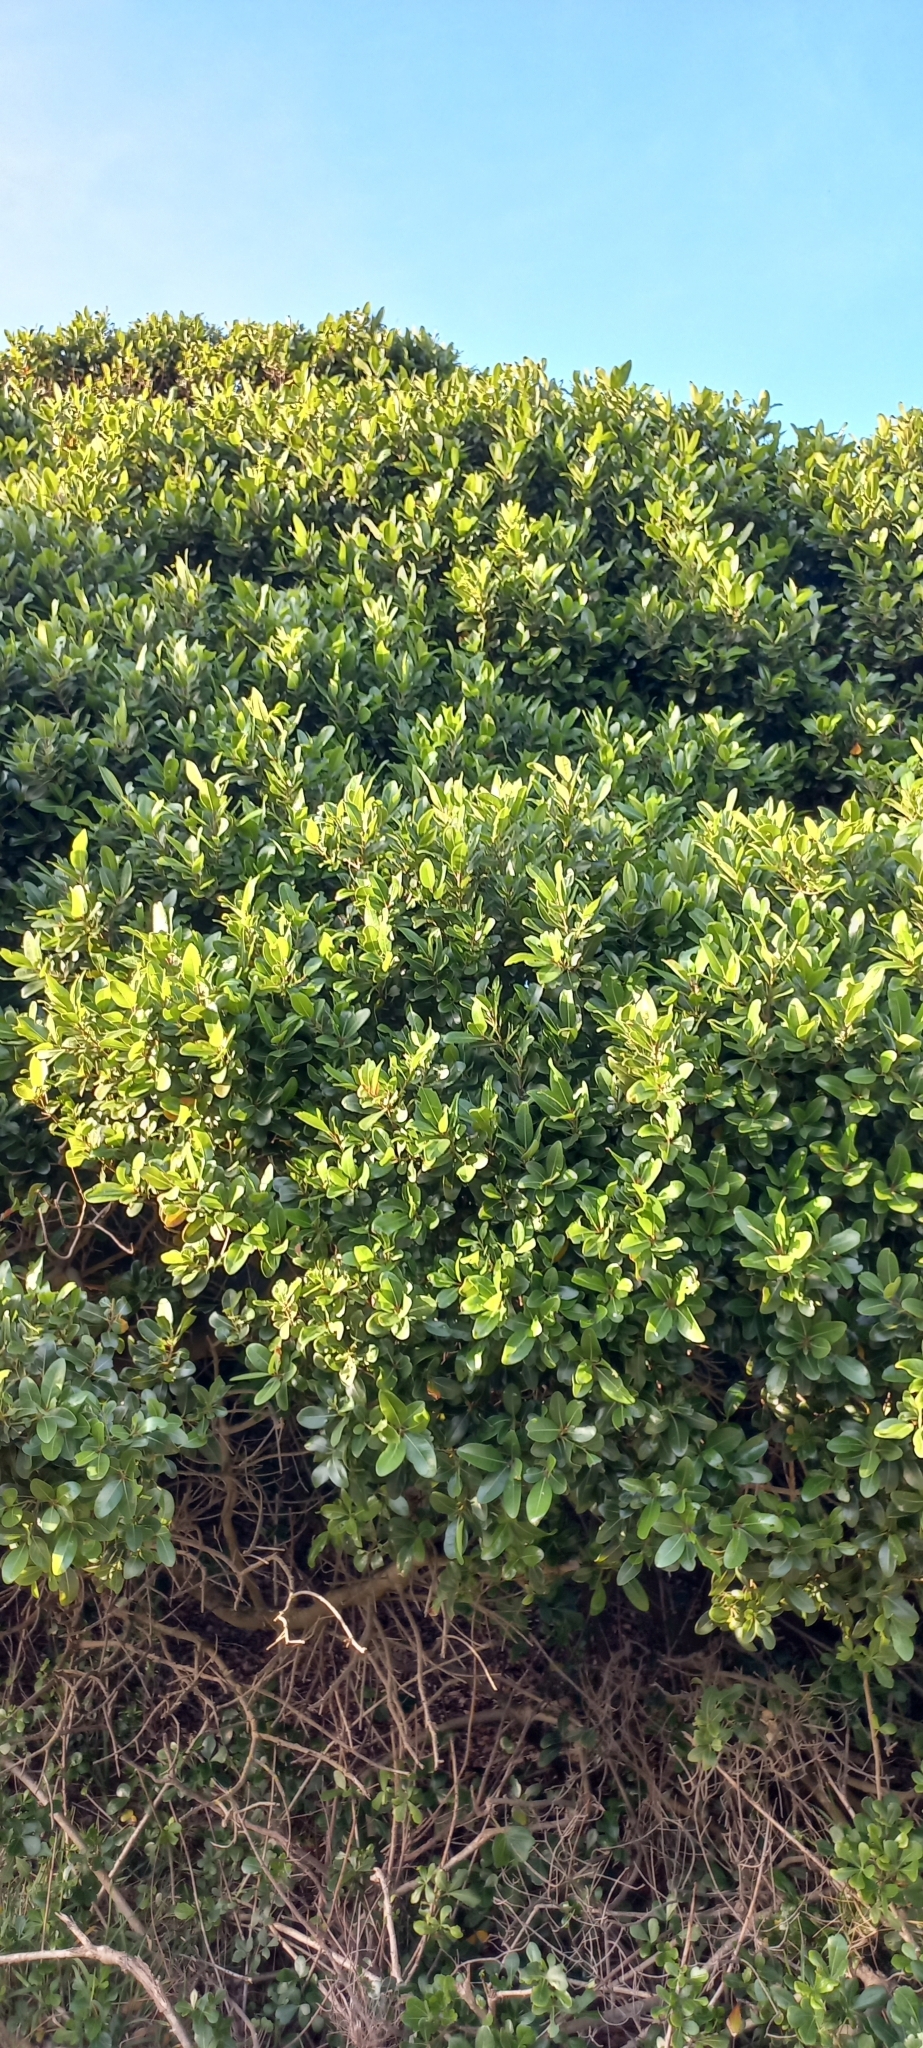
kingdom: Plantae
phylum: Tracheophyta
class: Magnoliopsida
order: Ericales
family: Sapotaceae
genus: Sideroxylon
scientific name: Sideroxylon inerme
